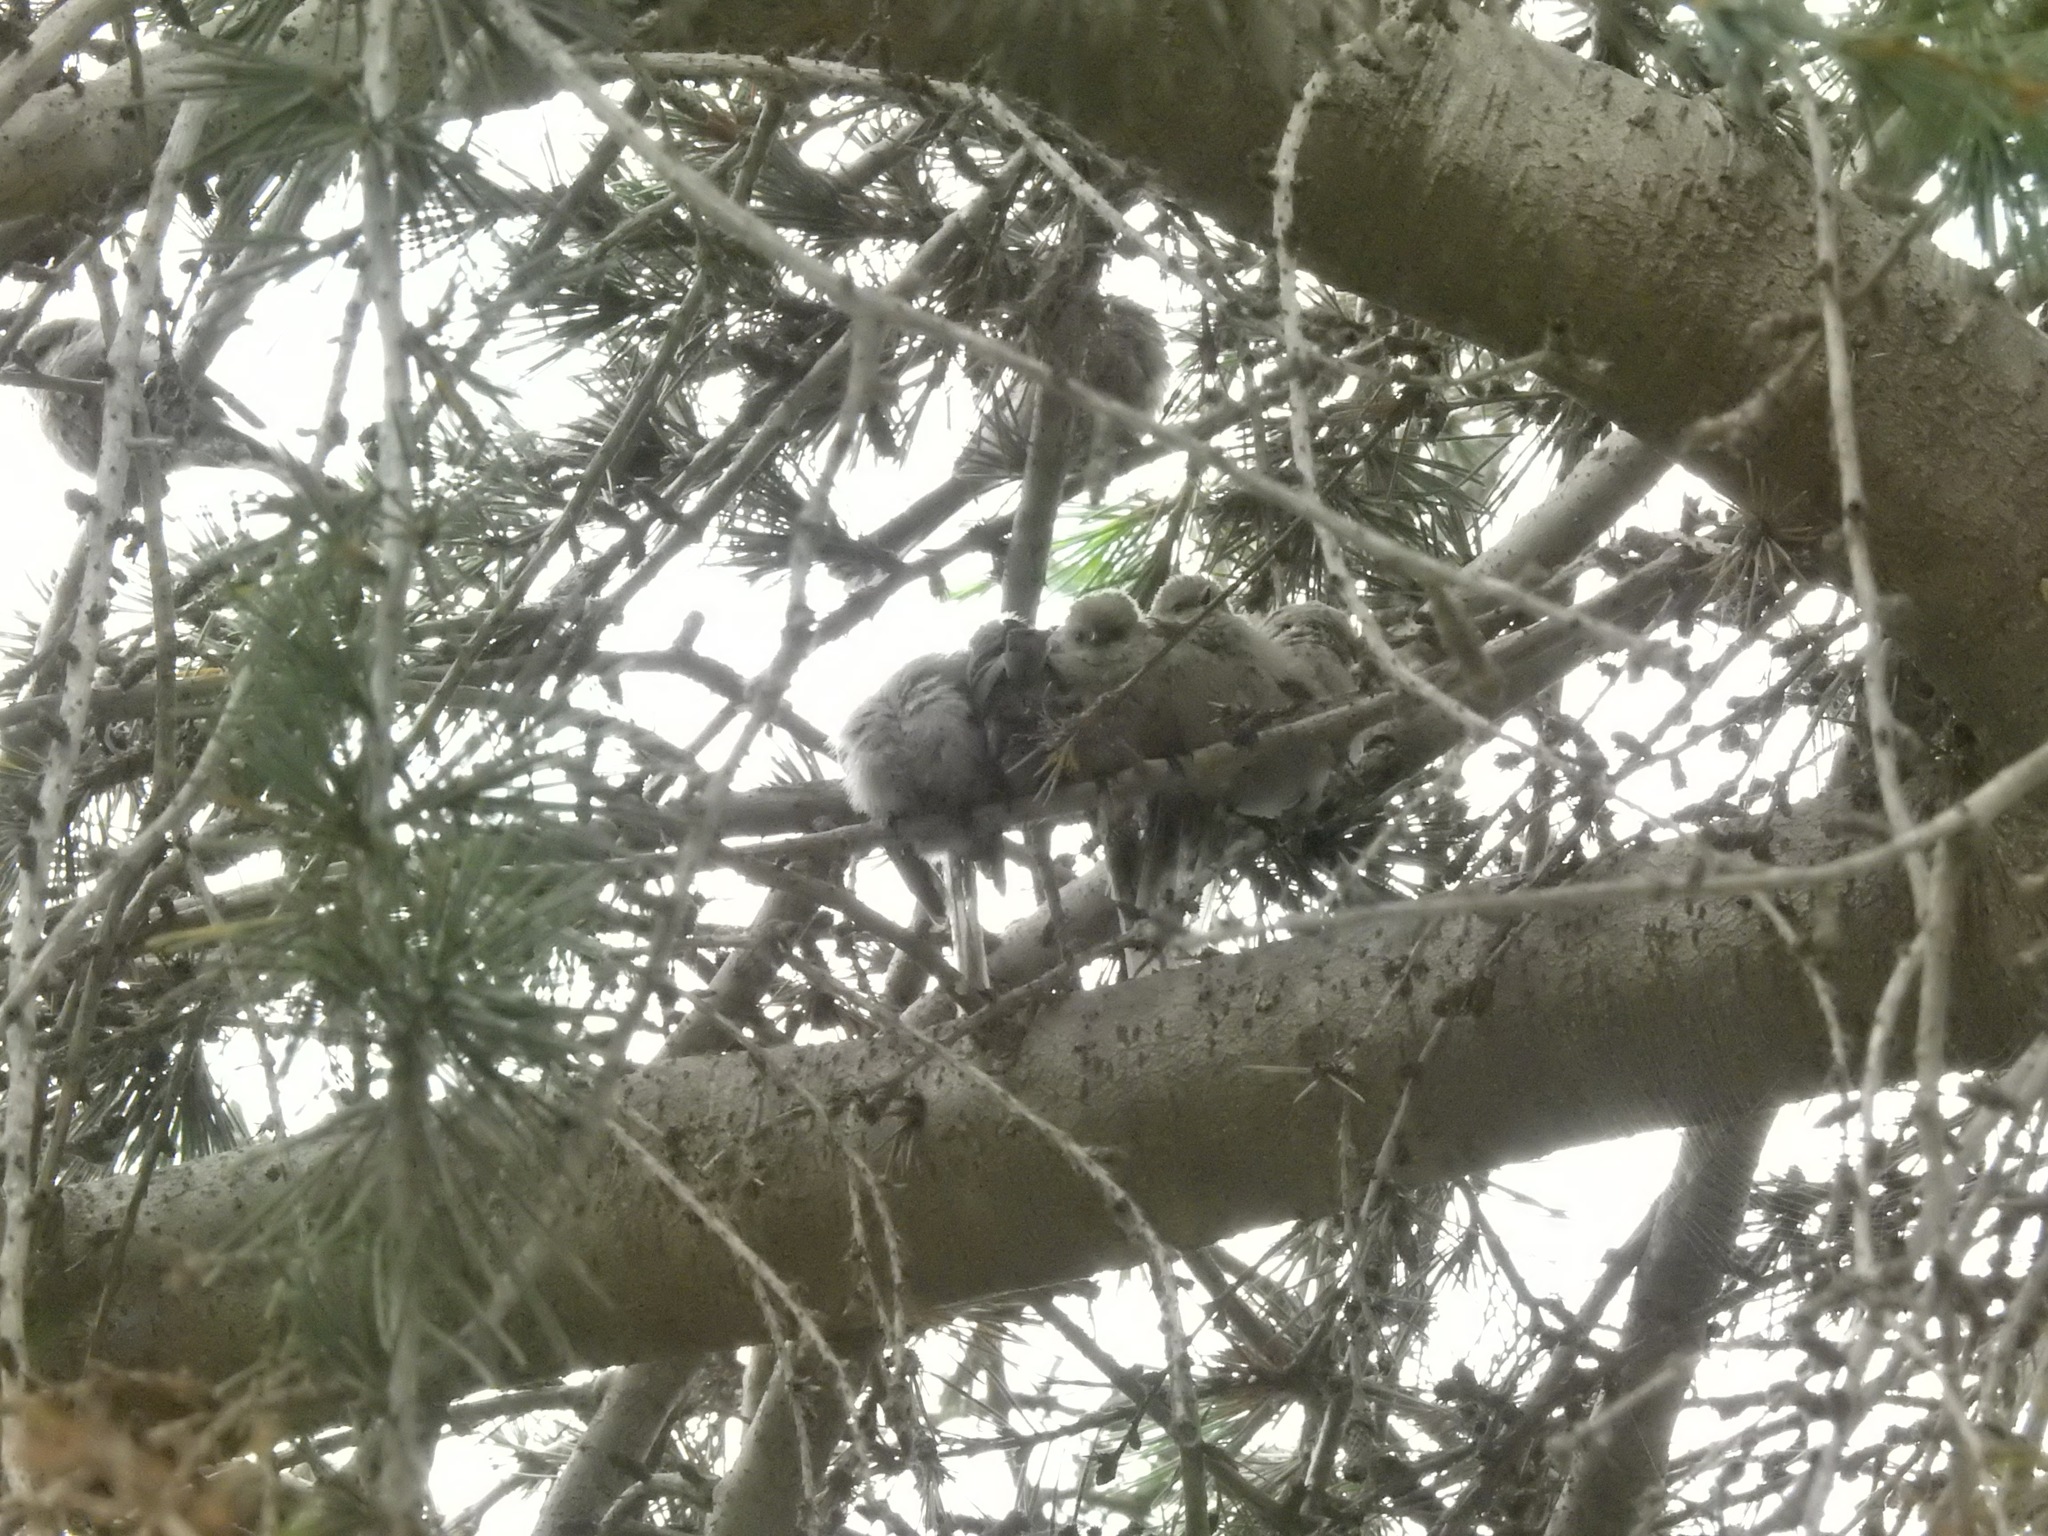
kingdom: Animalia
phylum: Chordata
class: Aves
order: Passeriformes
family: Aegithalidae
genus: Psaltriparus
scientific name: Psaltriparus minimus
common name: American bushtit
